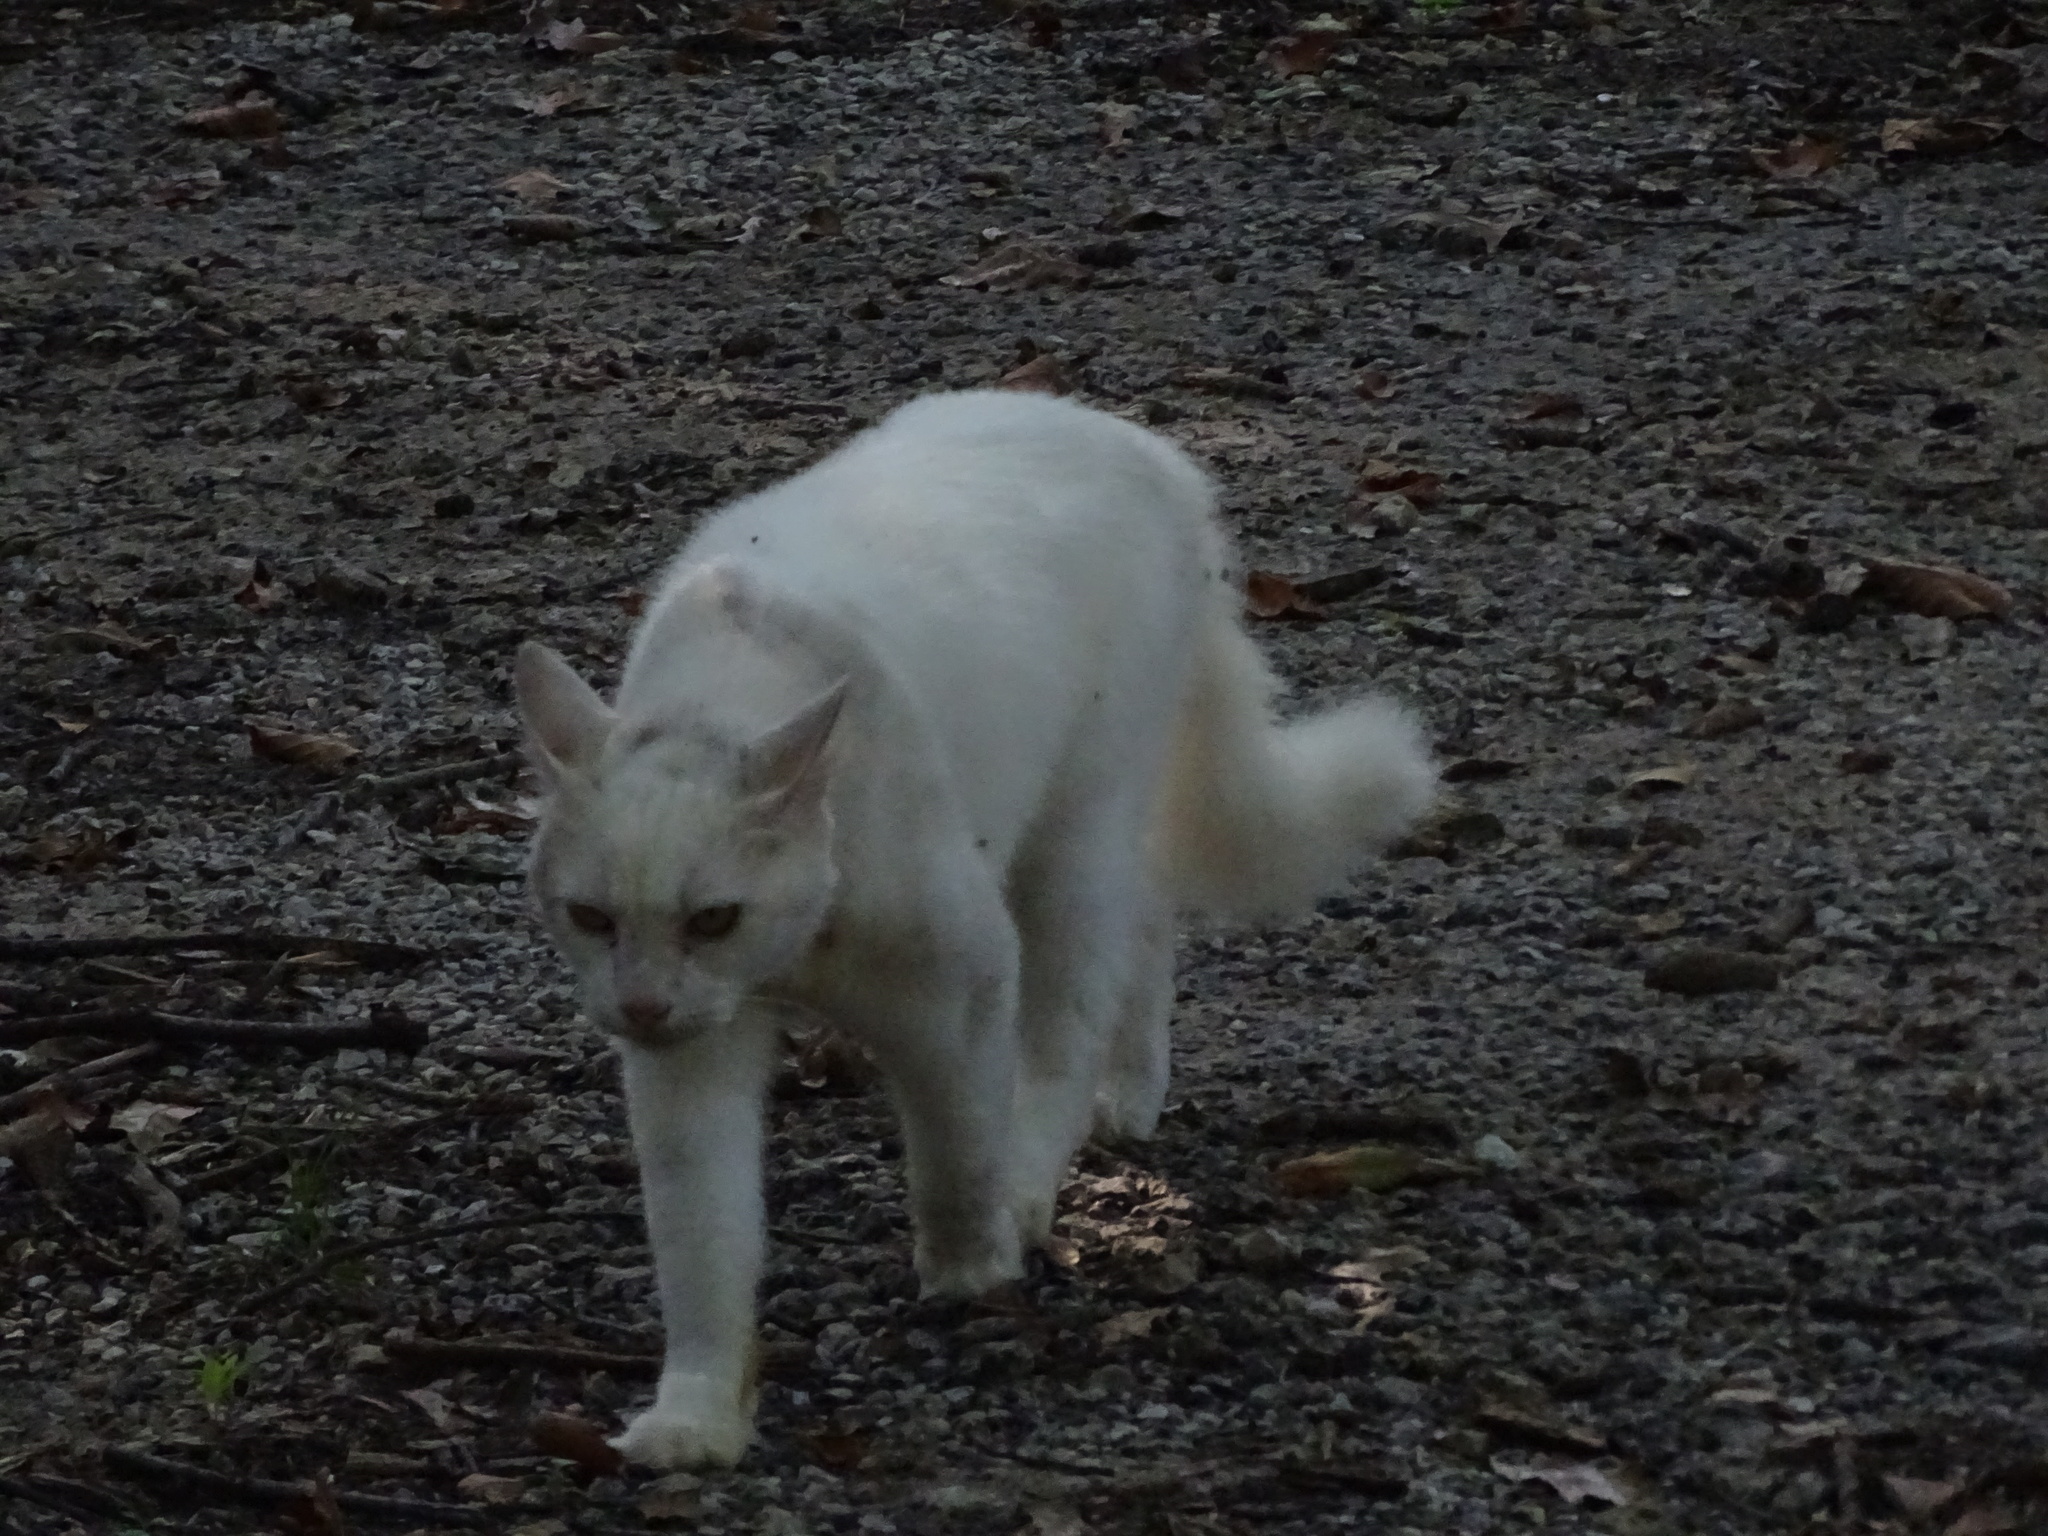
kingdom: Animalia
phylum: Chordata
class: Mammalia
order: Carnivora
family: Felidae
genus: Felis
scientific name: Felis catus
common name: Domestic cat
